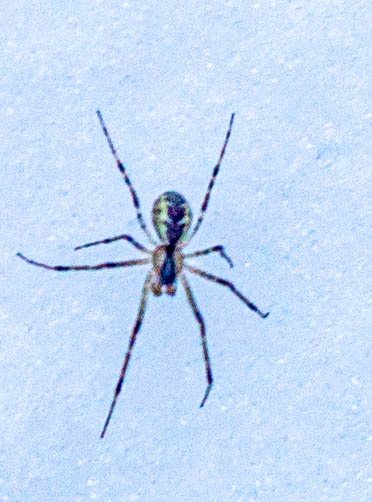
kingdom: Animalia
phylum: Arthropoda
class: Arachnida
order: Araneae
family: Linyphiidae
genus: Pityohyphantes
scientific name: Pityohyphantes phrygianus
